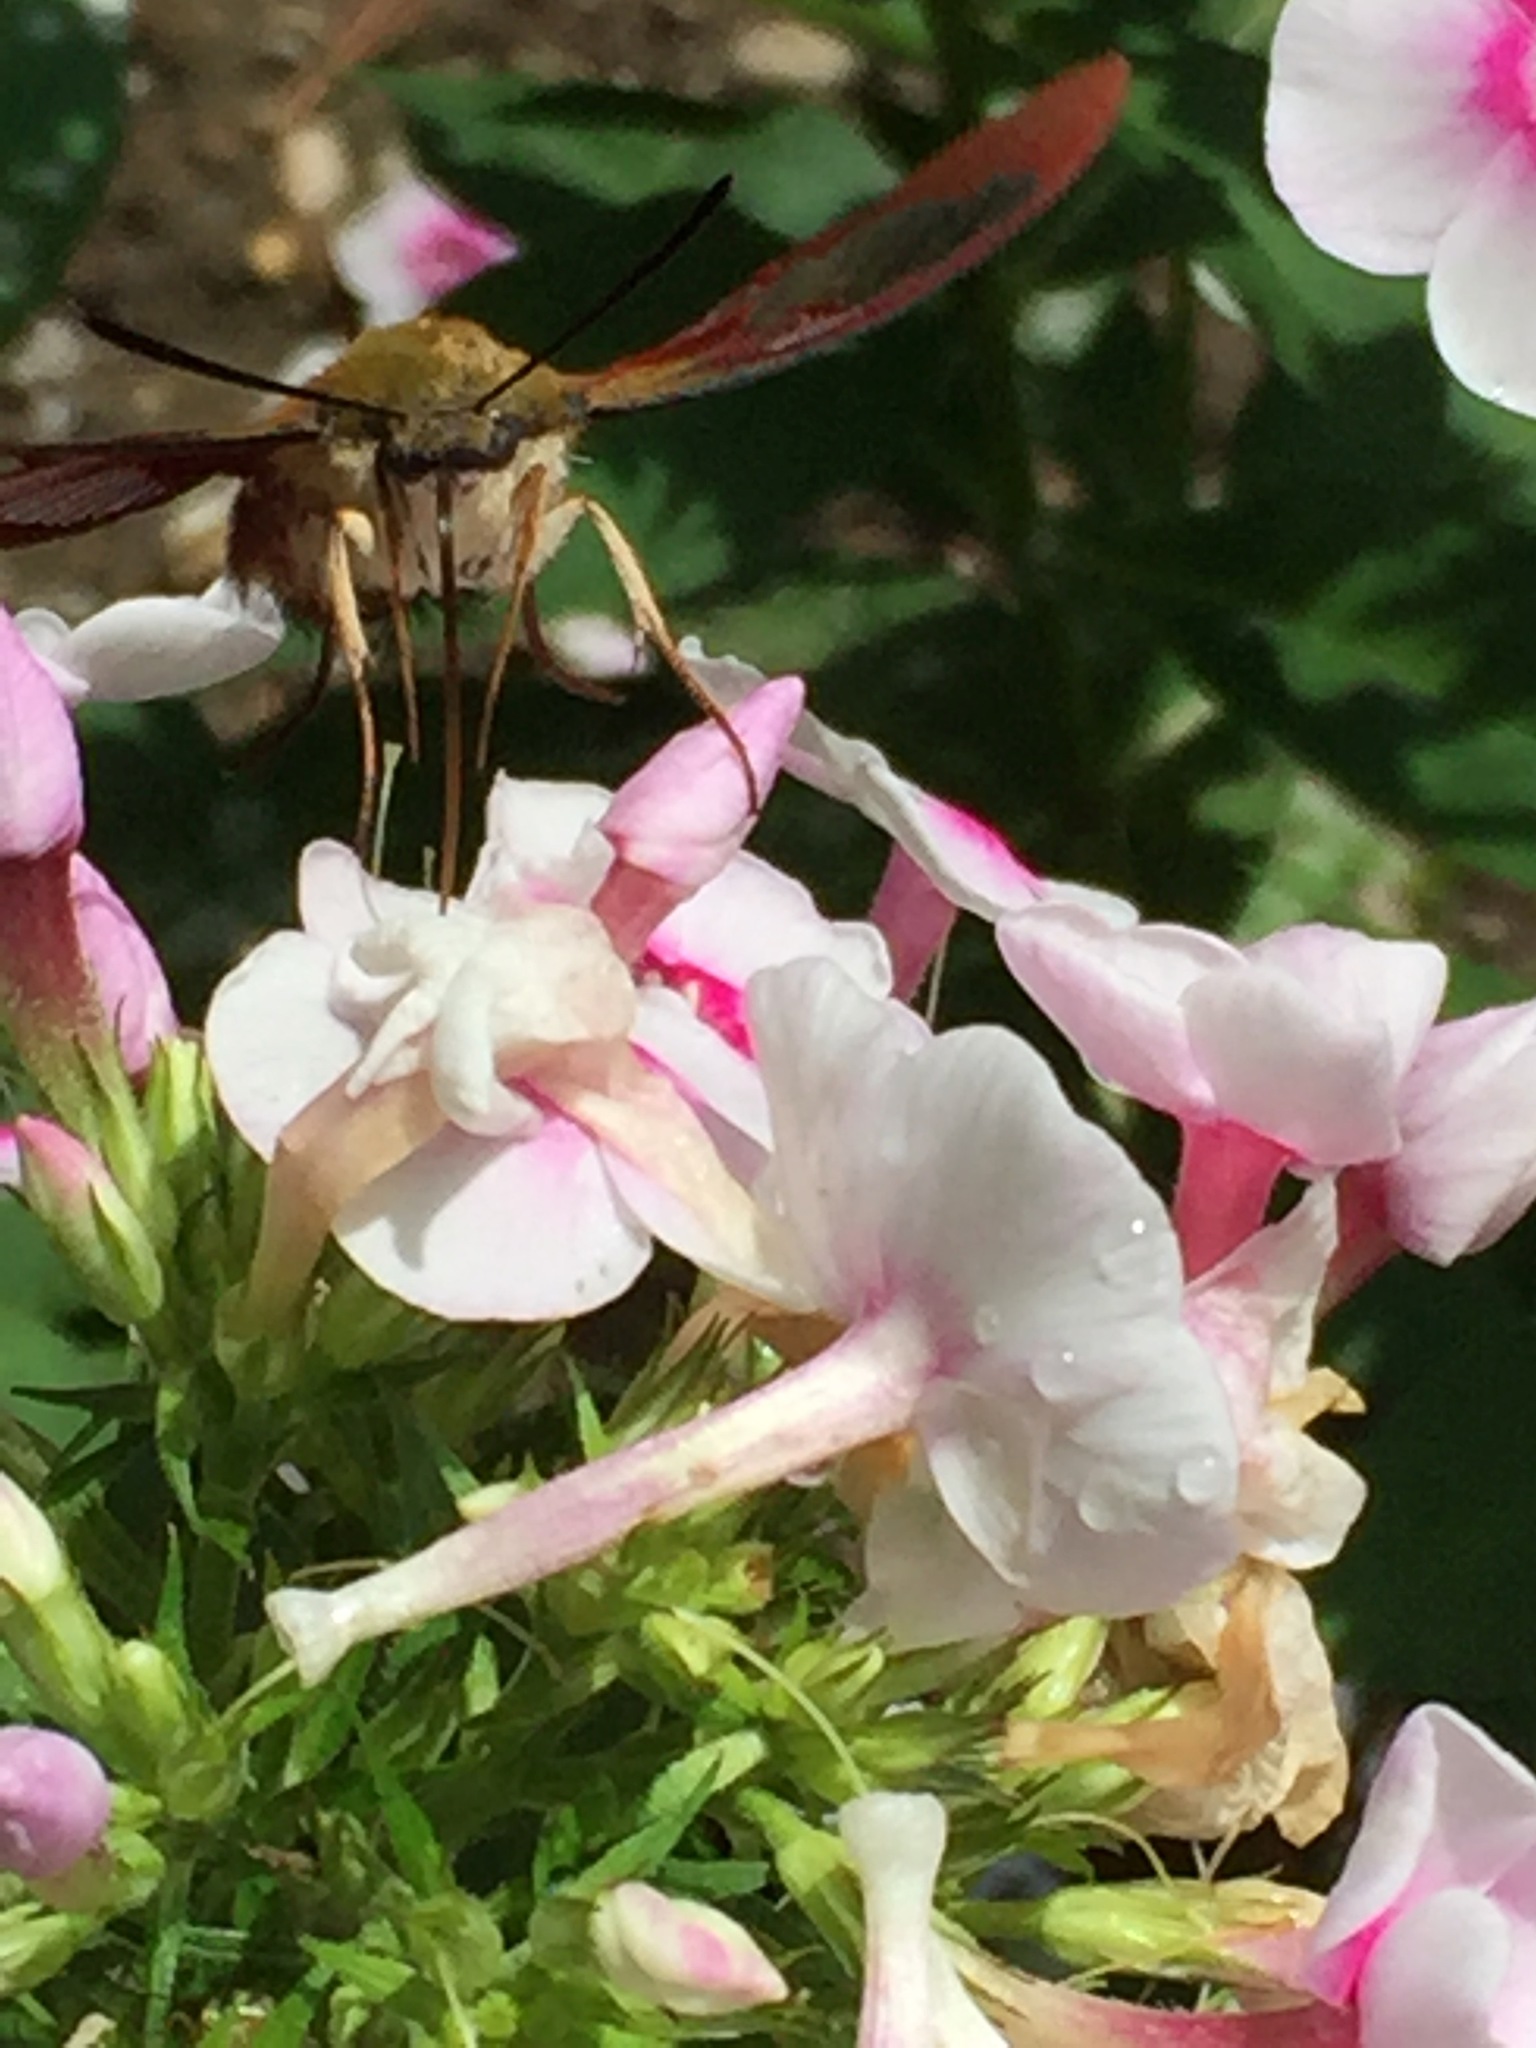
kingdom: Animalia
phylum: Arthropoda
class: Insecta
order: Lepidoptera
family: Sphingidae
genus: Hemaris
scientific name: Hemaris thysbe
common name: Common clear-wing
